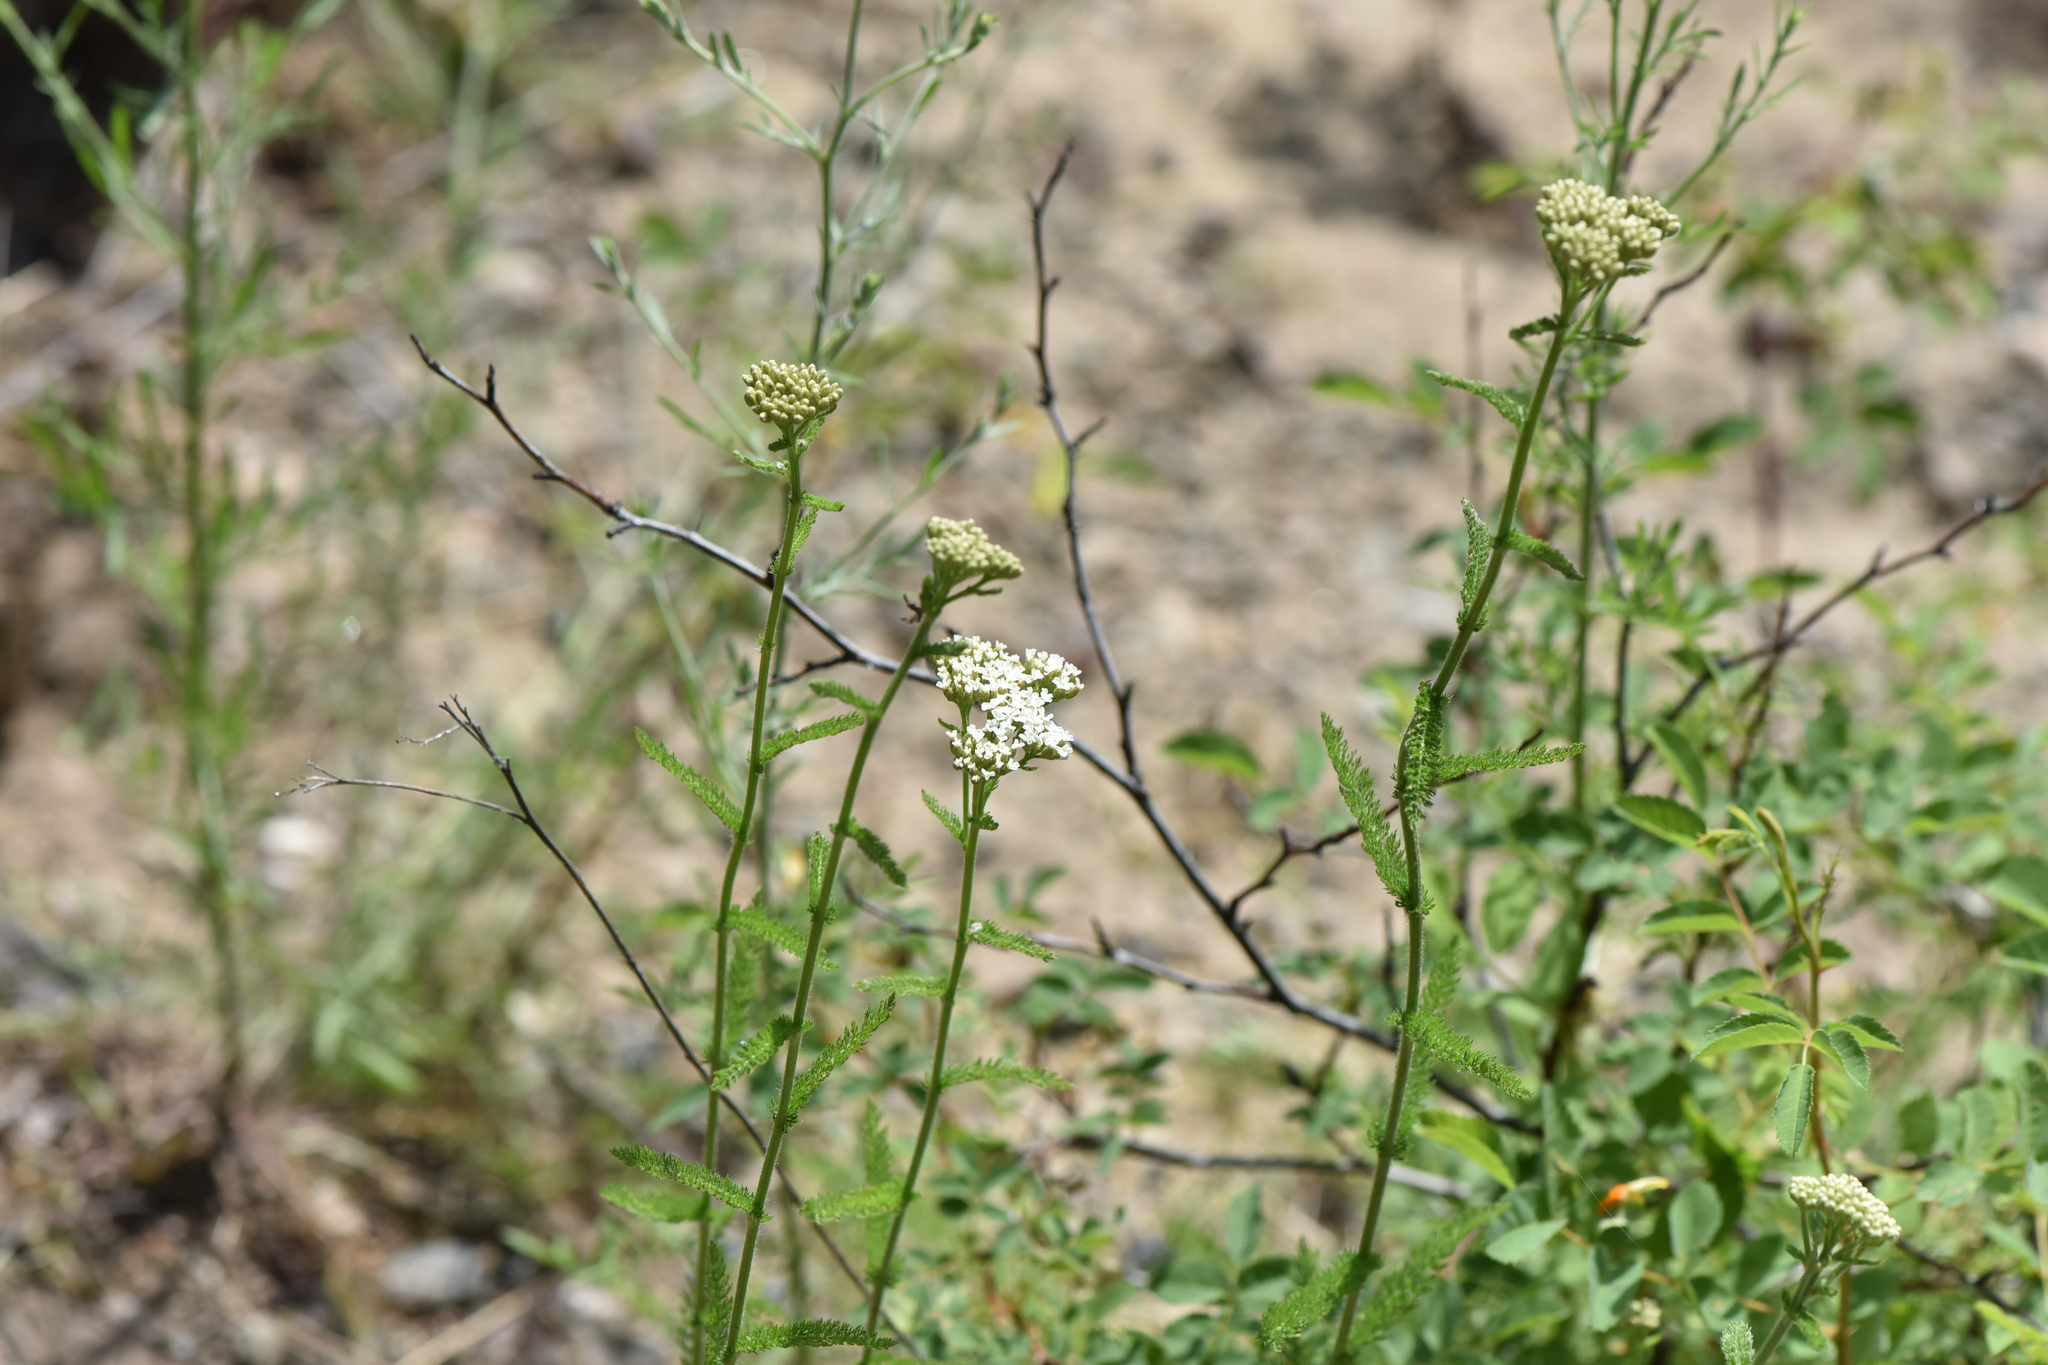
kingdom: Plantae
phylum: Tracheophyta
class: Magnoliopsida
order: Asterales
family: Asteraceae
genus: Achillea
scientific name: Achillea millefolium
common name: Yarrow
